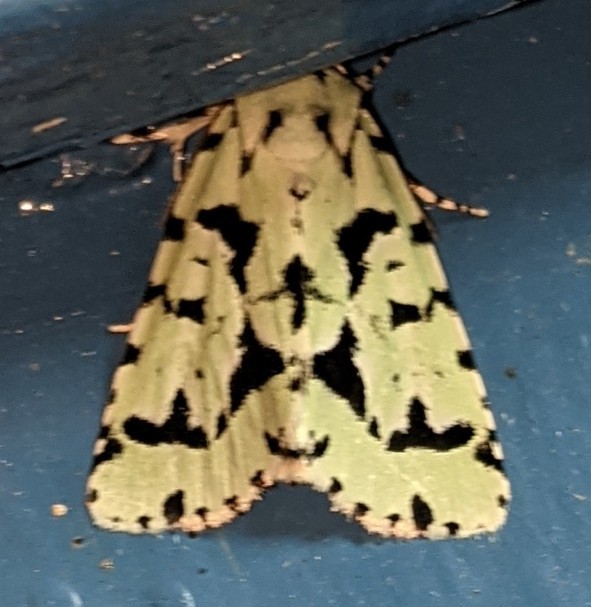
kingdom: Animalia
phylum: Arthropoda
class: Insecta
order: Lepidoptera
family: Noctuidae
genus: Acronicta
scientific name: Acronicta fallax
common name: Green marvel
